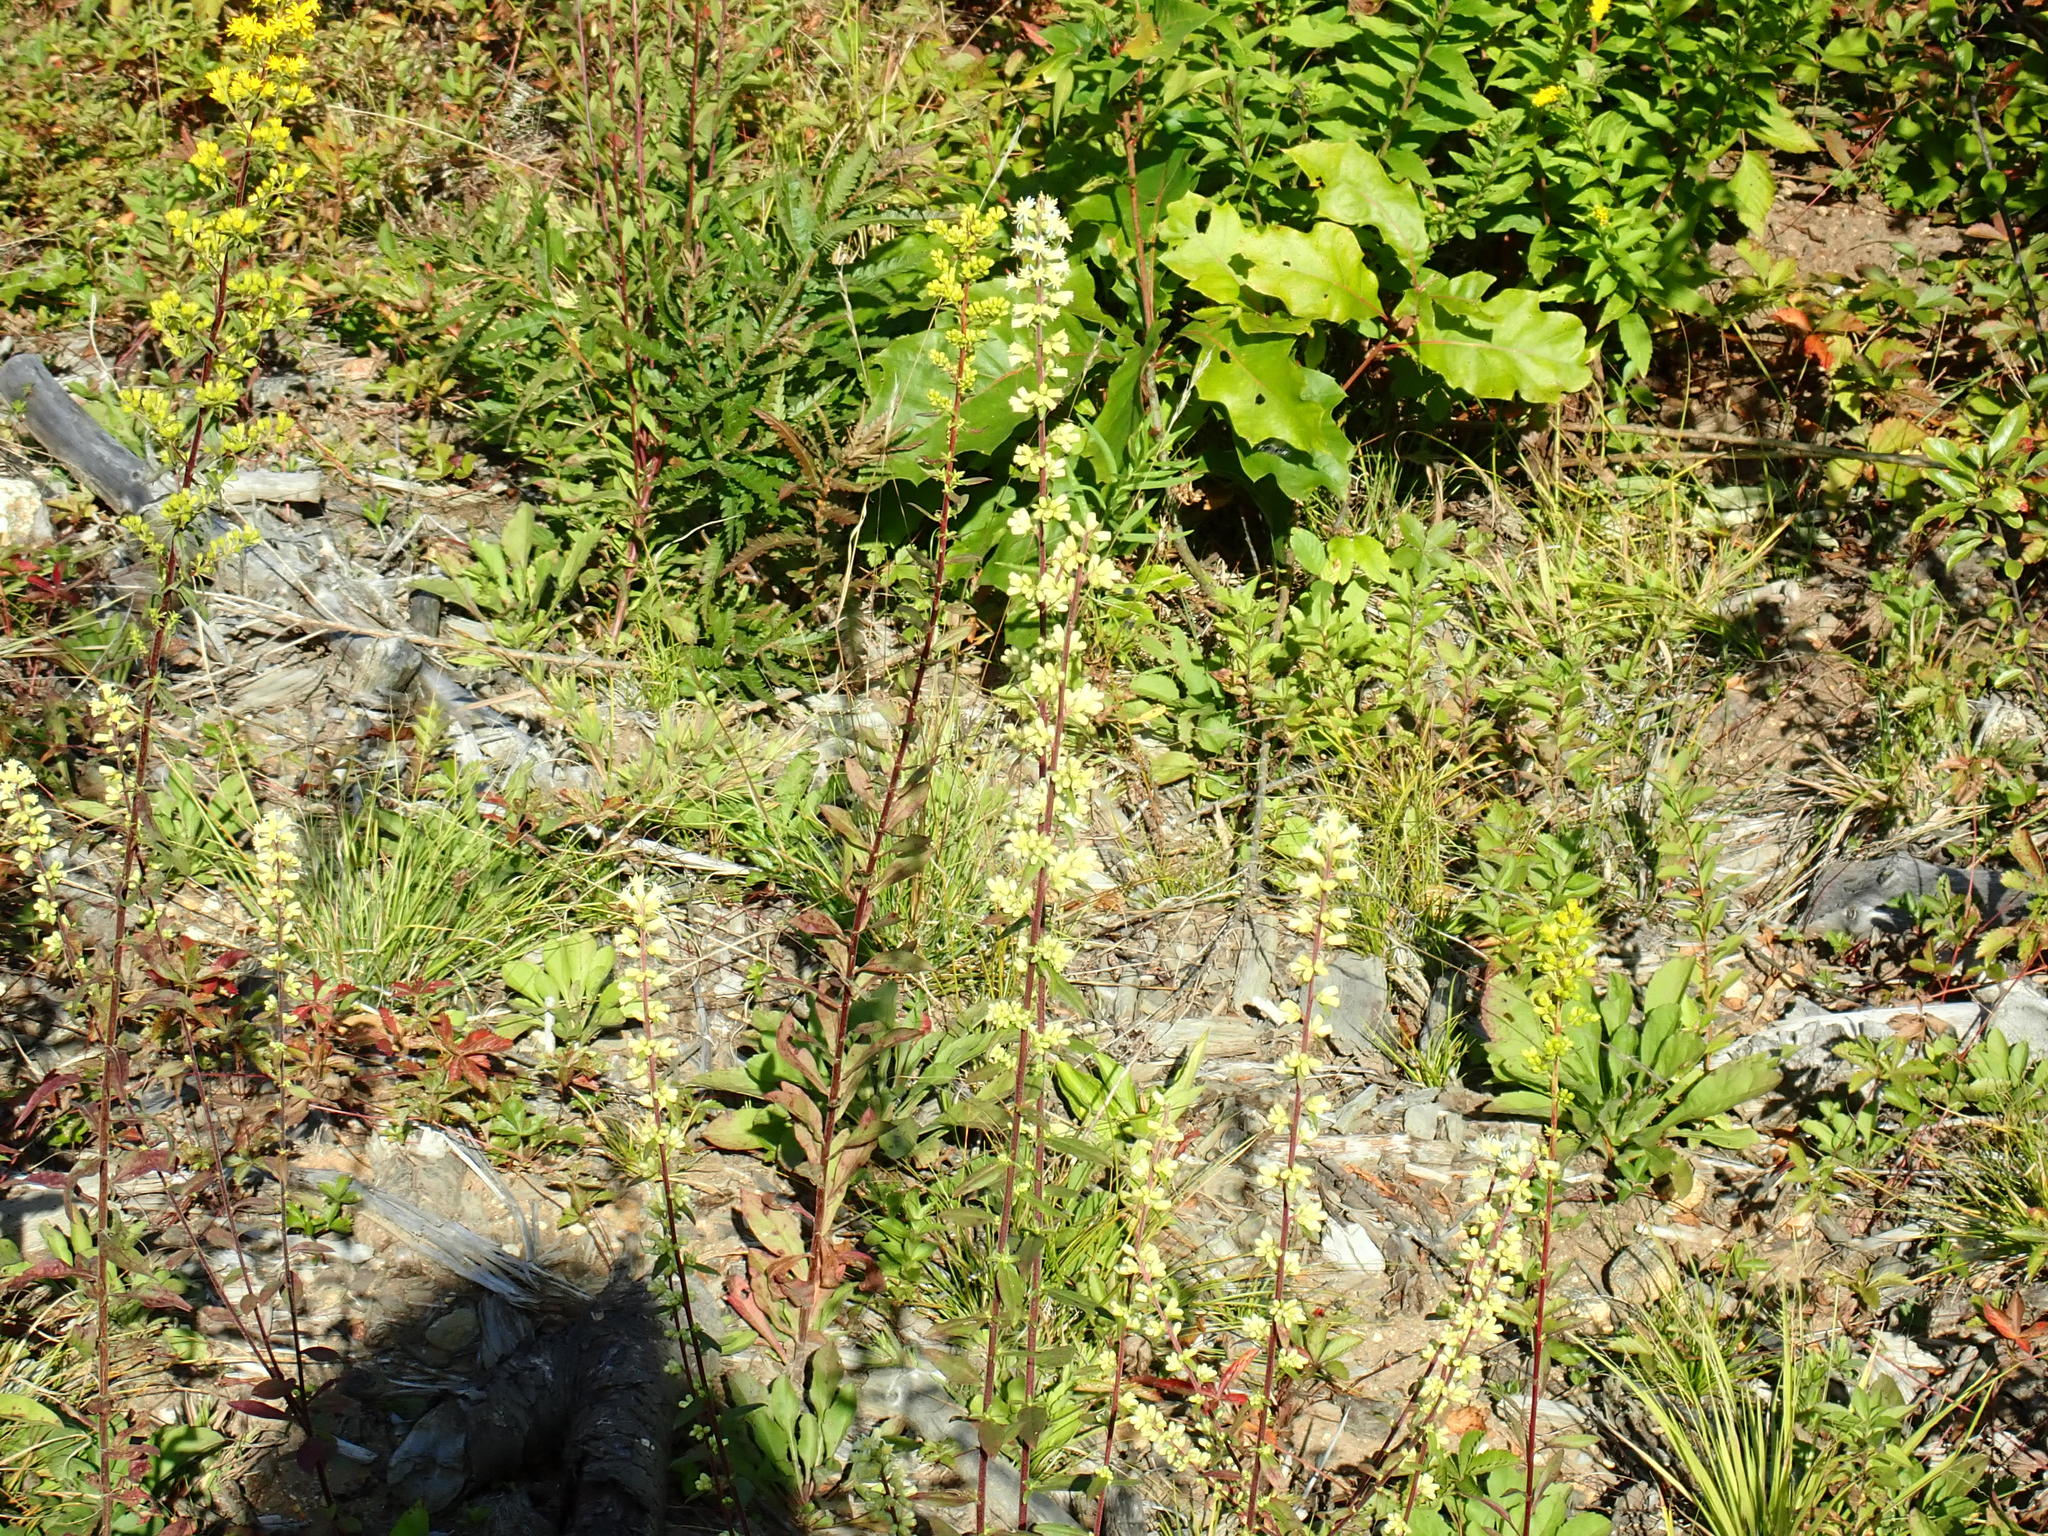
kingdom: Plantae
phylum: Tracheophyta
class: Magnoliopsida
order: Asterales
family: Asteraceae
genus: Solidago
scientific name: Solidago bicolor
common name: Silverrod
